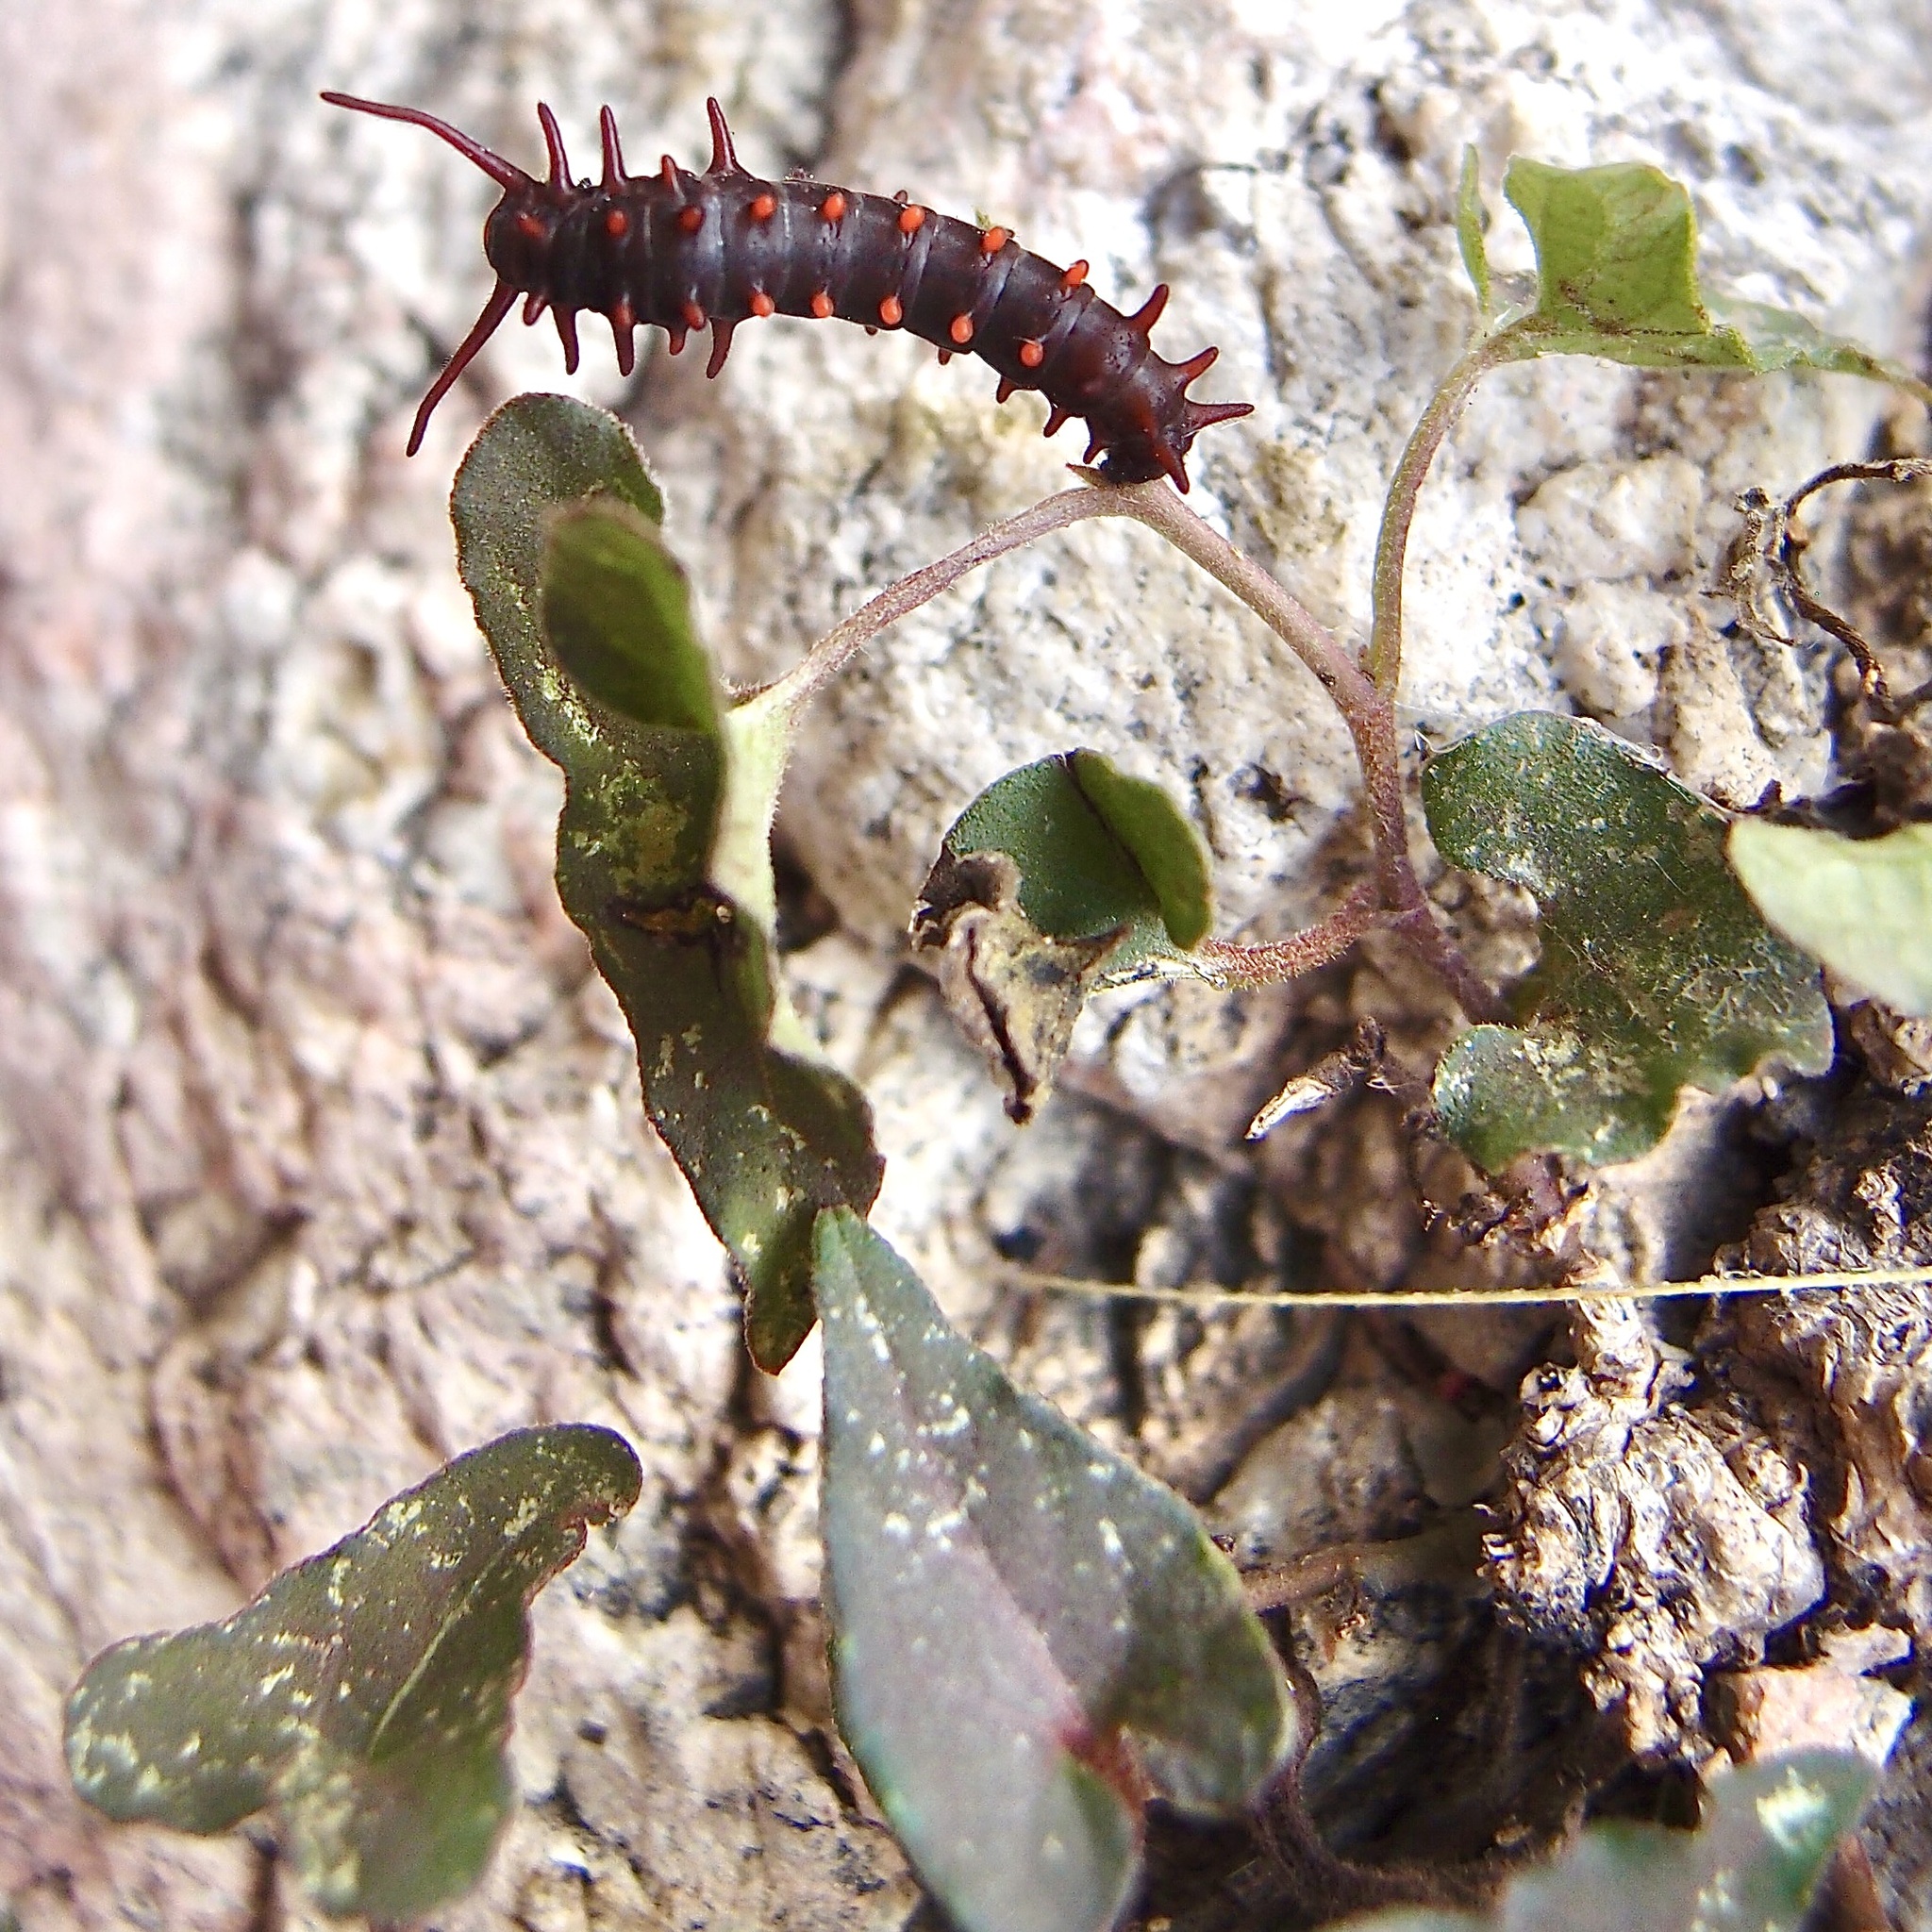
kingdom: Plantae
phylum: Tracheophyta
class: Magnoliopsida
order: Piperales
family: Aristolochiaceae
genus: Aristolochia
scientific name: Aristolochia watsonii
